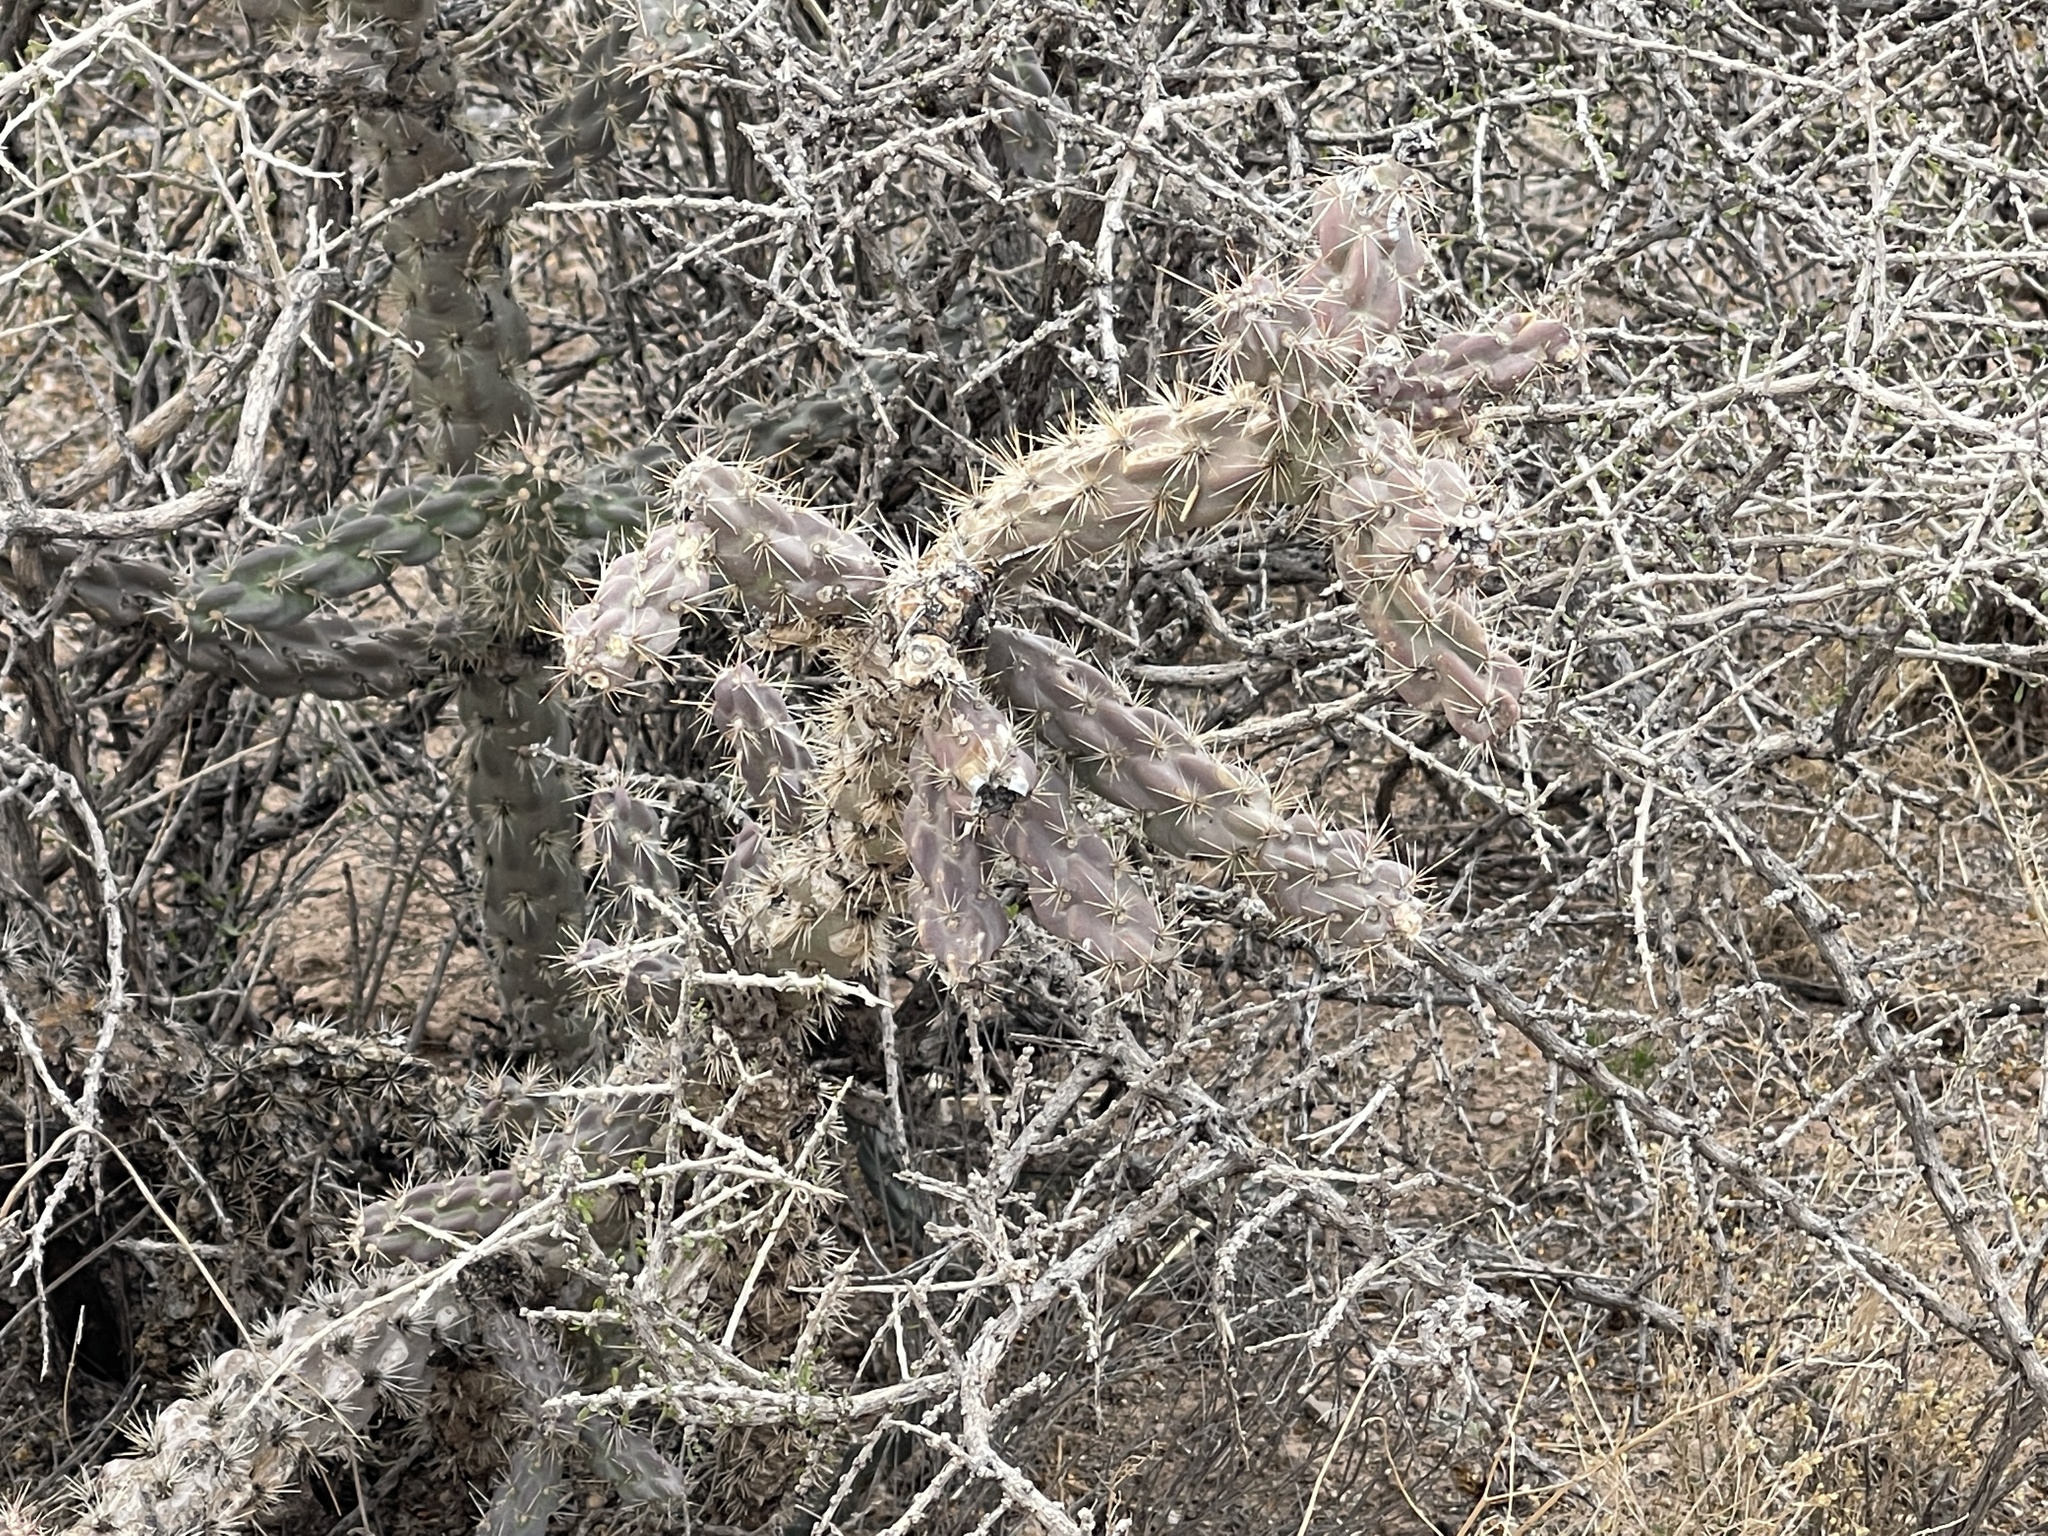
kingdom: Plantae
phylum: Tracheophyta
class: Magnoliopsida
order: Caryophyllales
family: Cactaceae
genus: Cylindropuntia
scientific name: Cylindropuntia imbricata
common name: Candelabrum cactus
